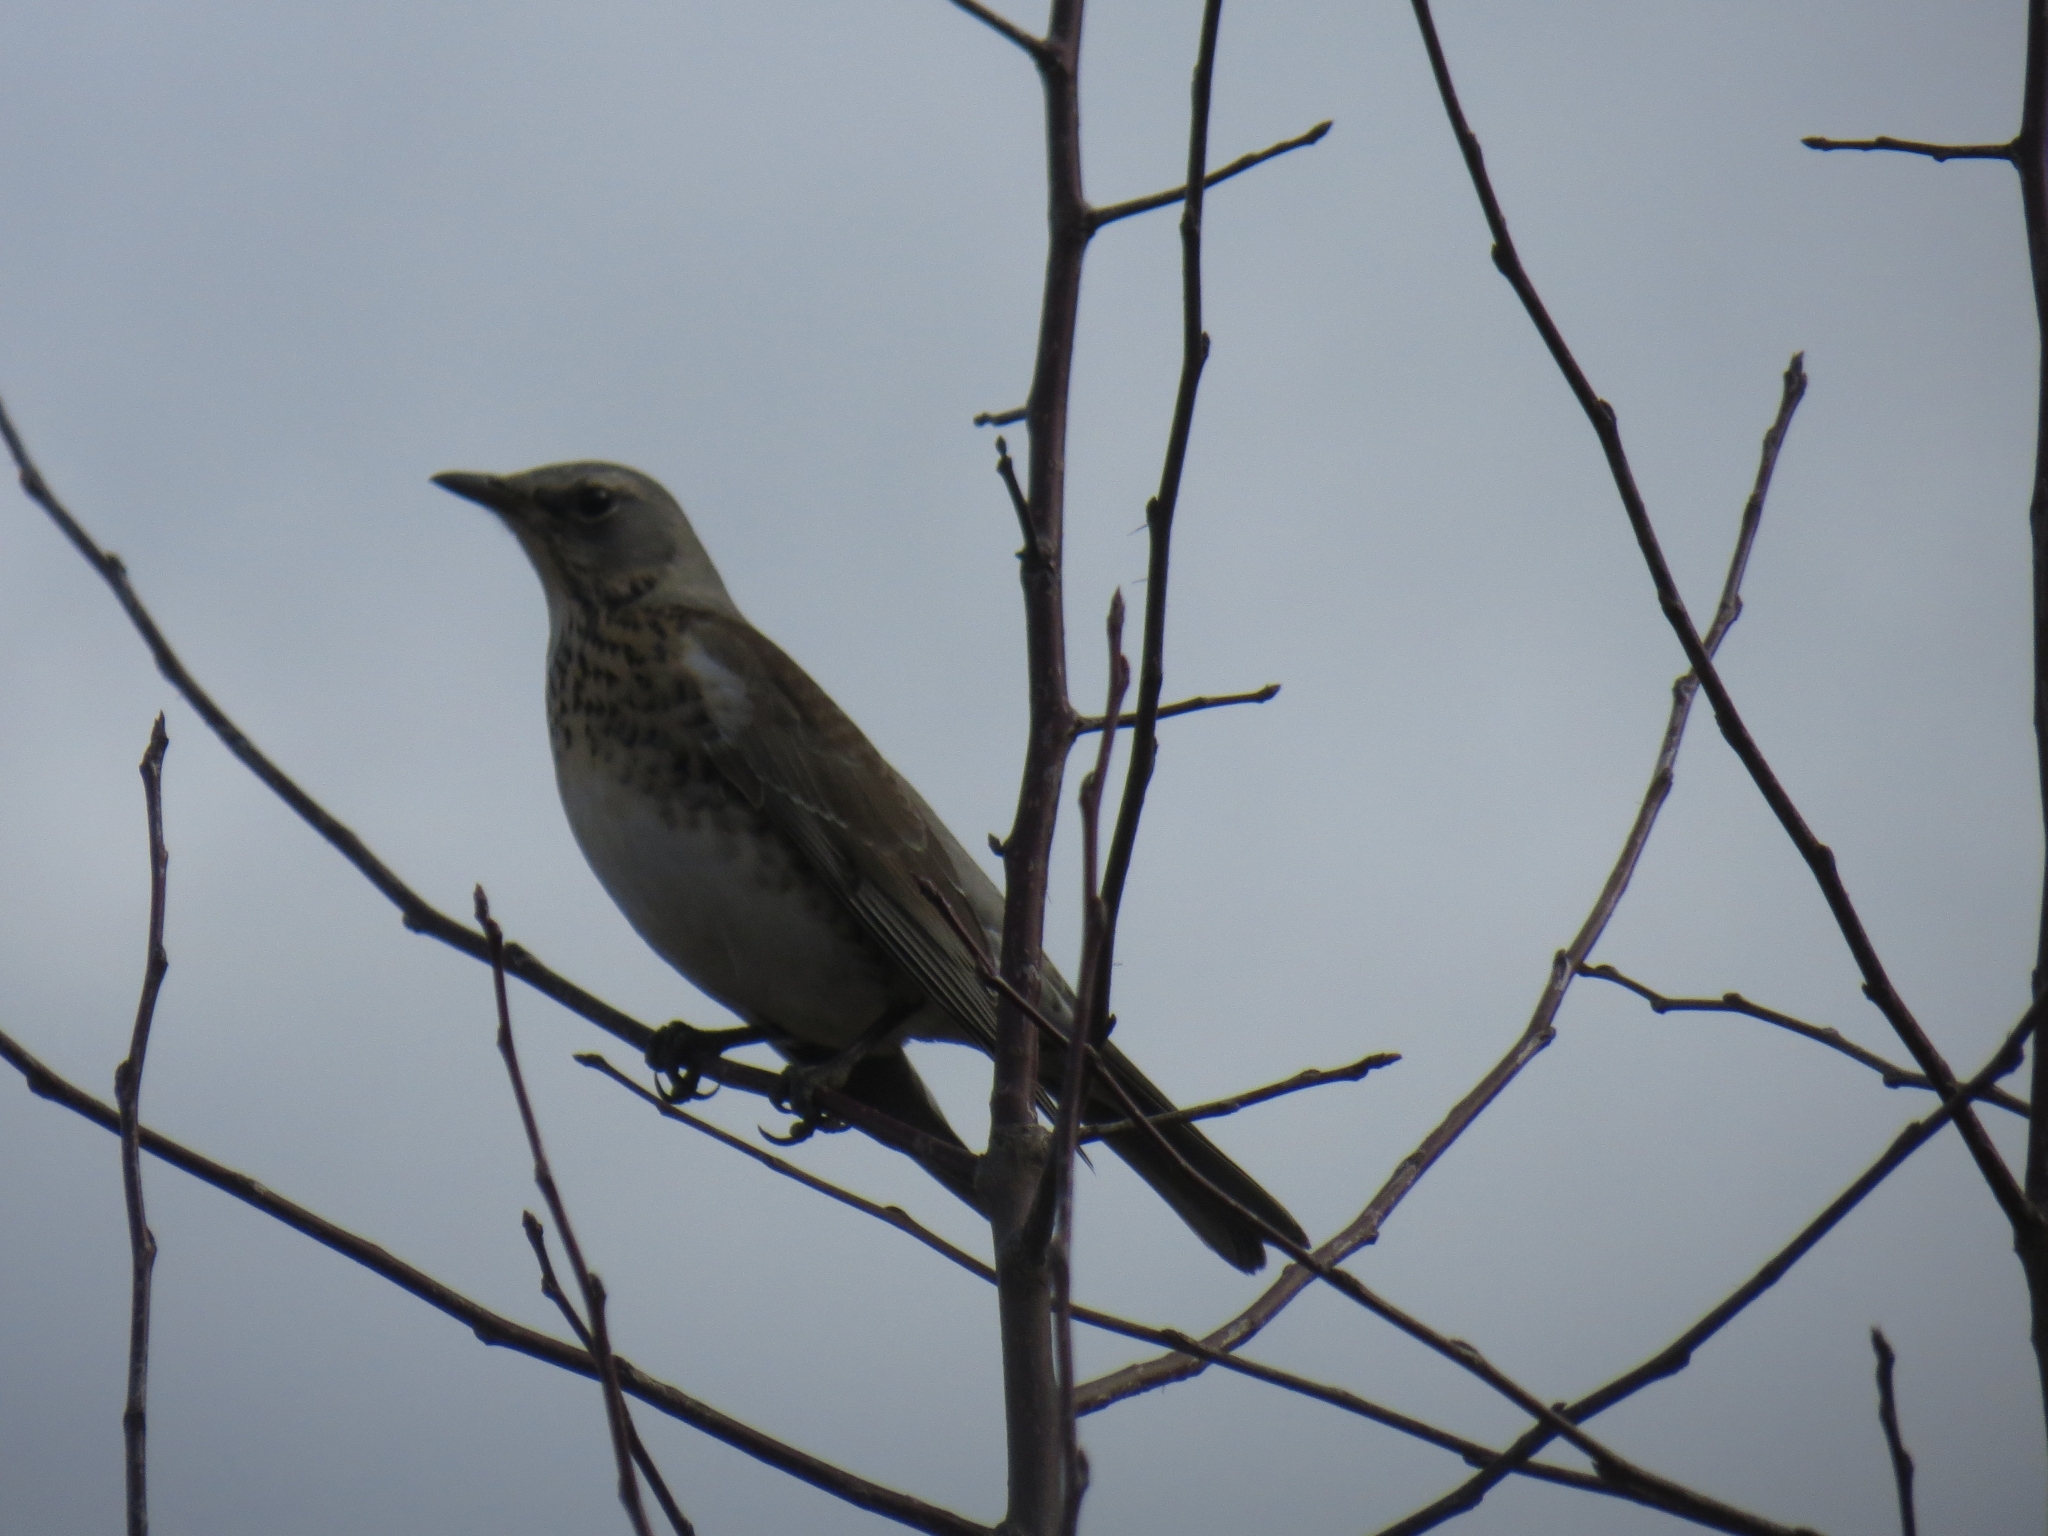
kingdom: Animalia
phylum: Chordata
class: Aves
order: Passeriformes
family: Turdidae
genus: Turdus
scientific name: Turdus pilaris
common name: Fieldfare
